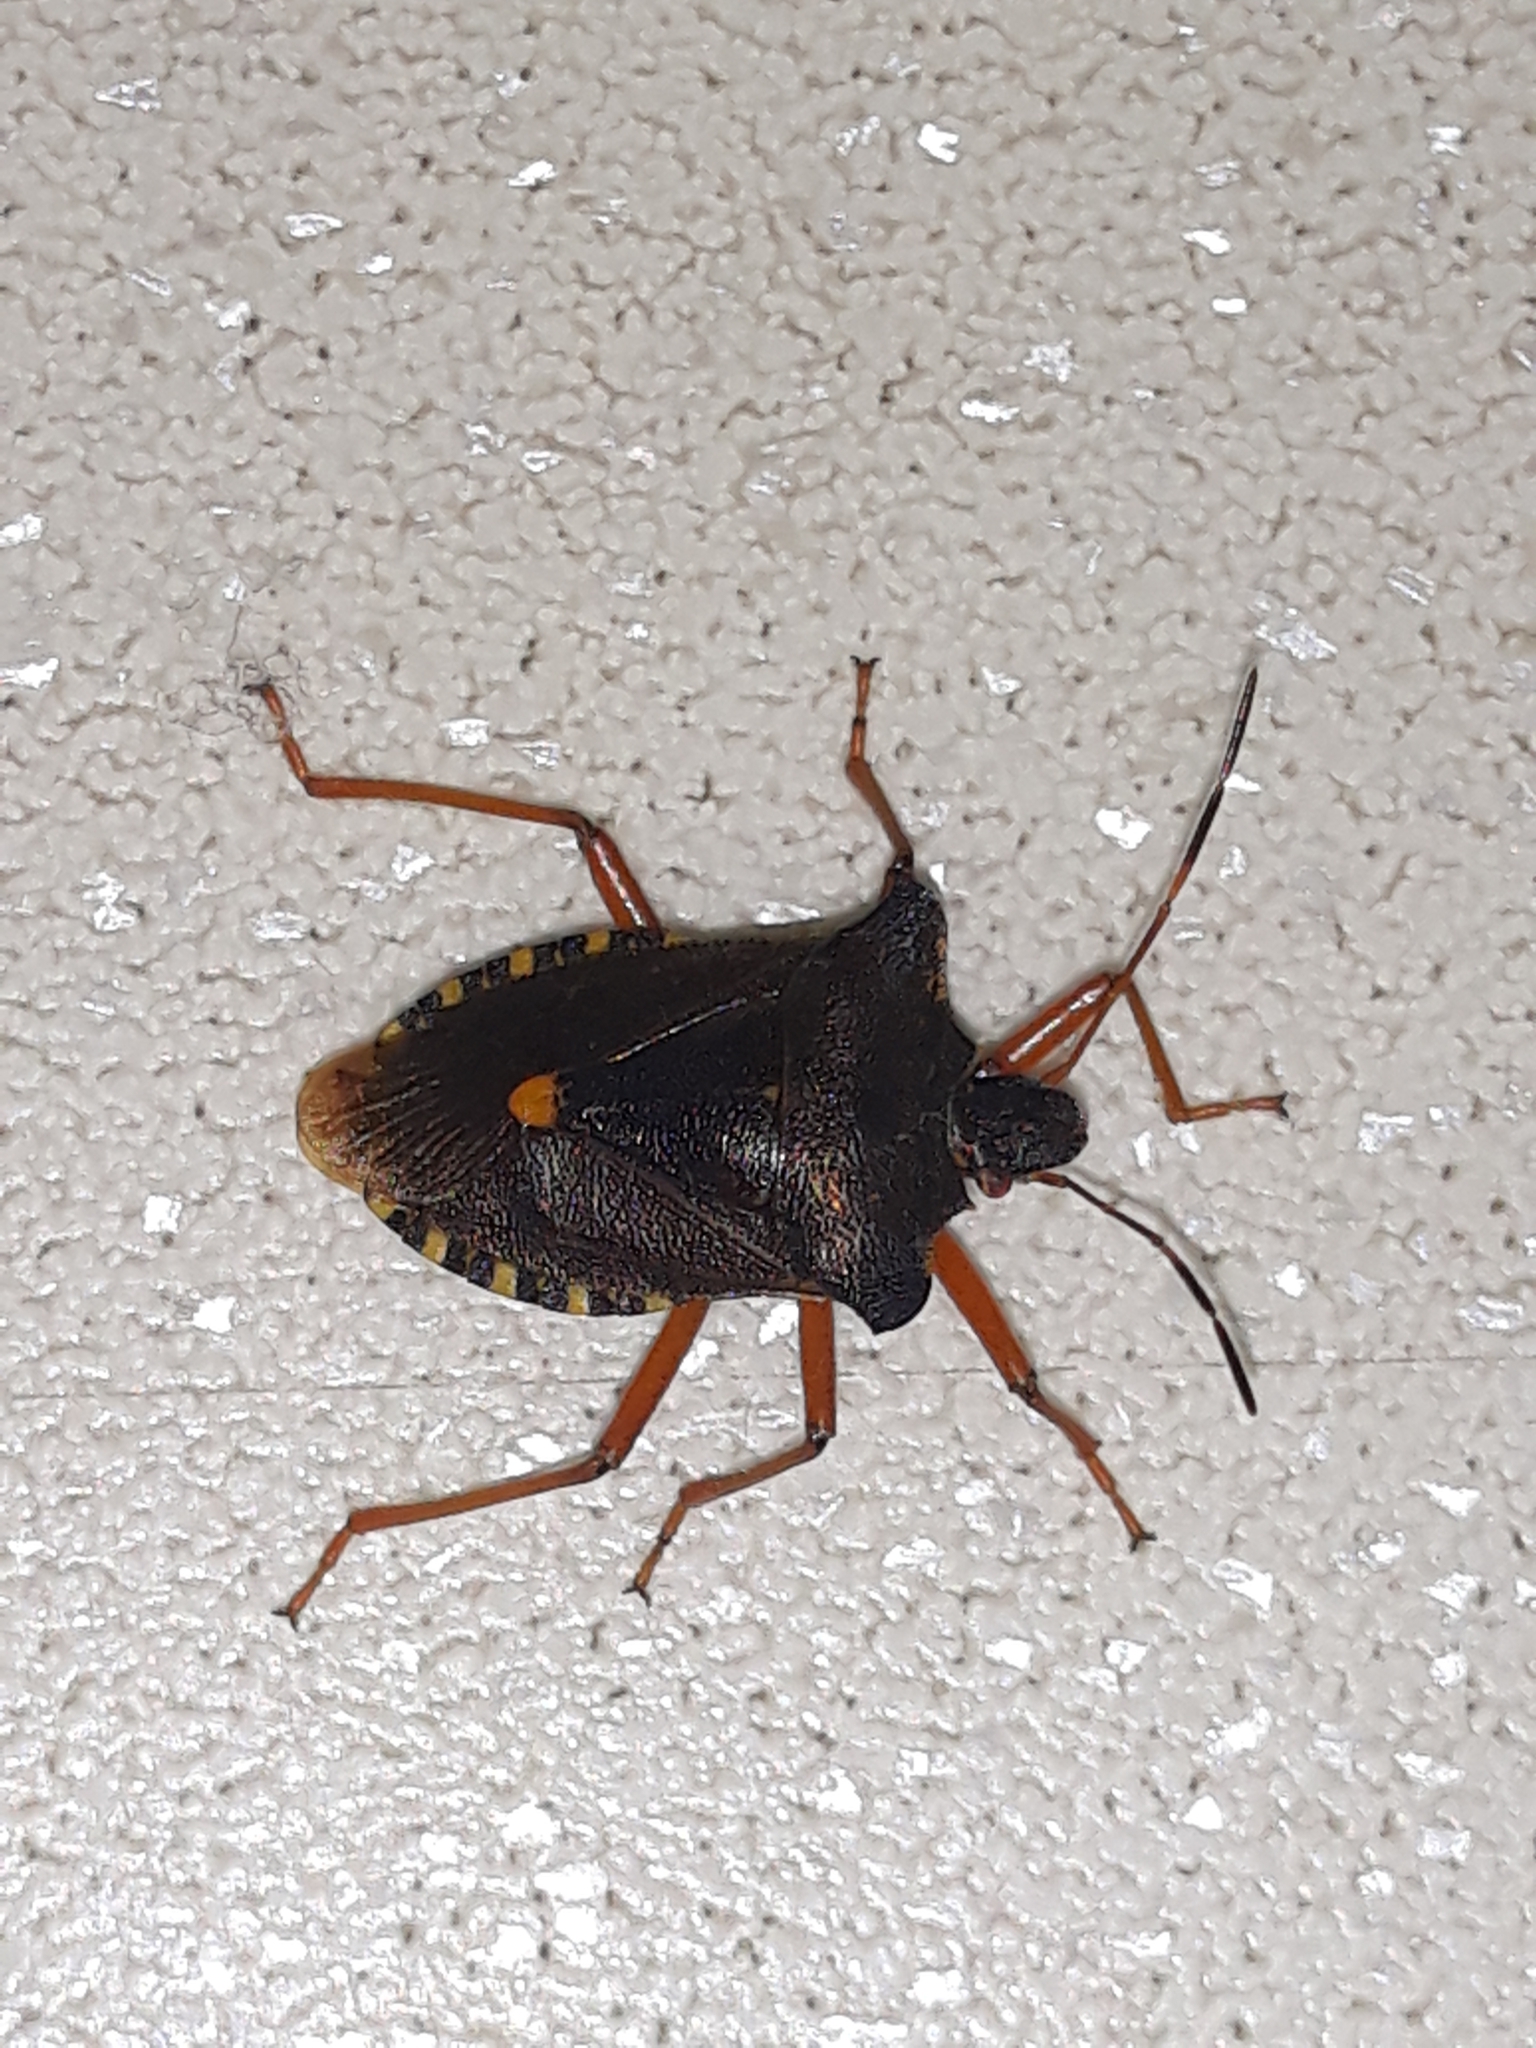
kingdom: Animalia
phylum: Arthropoda
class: Insecta
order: Hemiptera
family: Pentatomidae
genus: Pentatoma
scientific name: Pentatoma rufipes
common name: Forest bug
